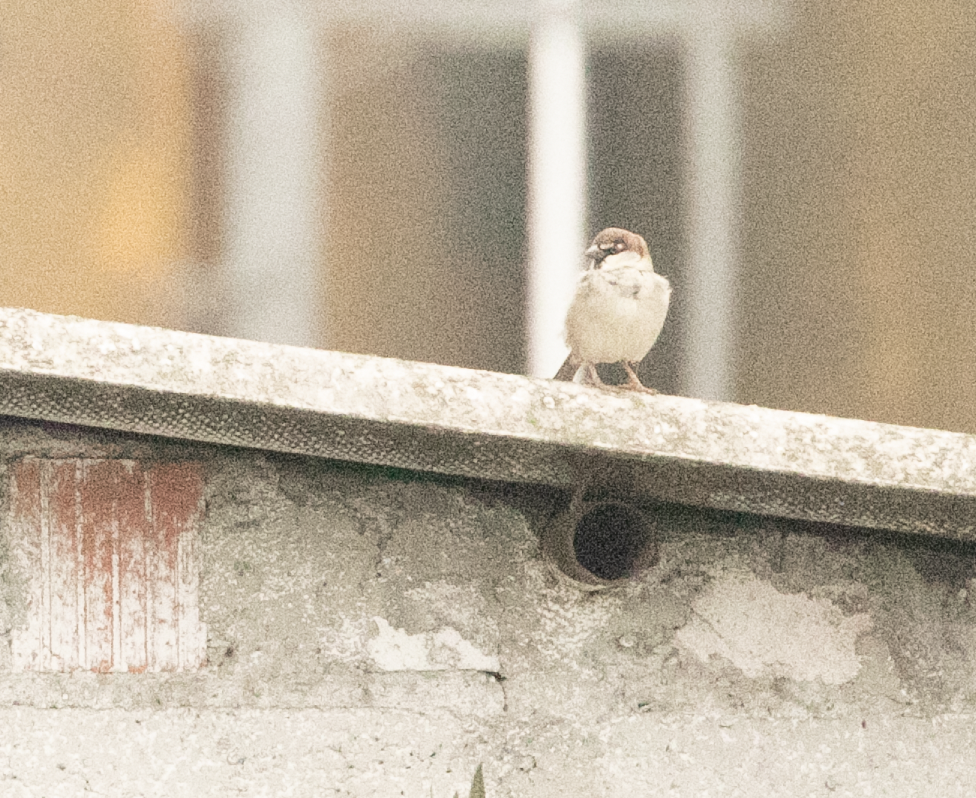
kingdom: Animalia
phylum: Chordata
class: Aves
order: Passeriformes
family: Passeridae
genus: Passer
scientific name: Passer italiae
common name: Italian sparrow
